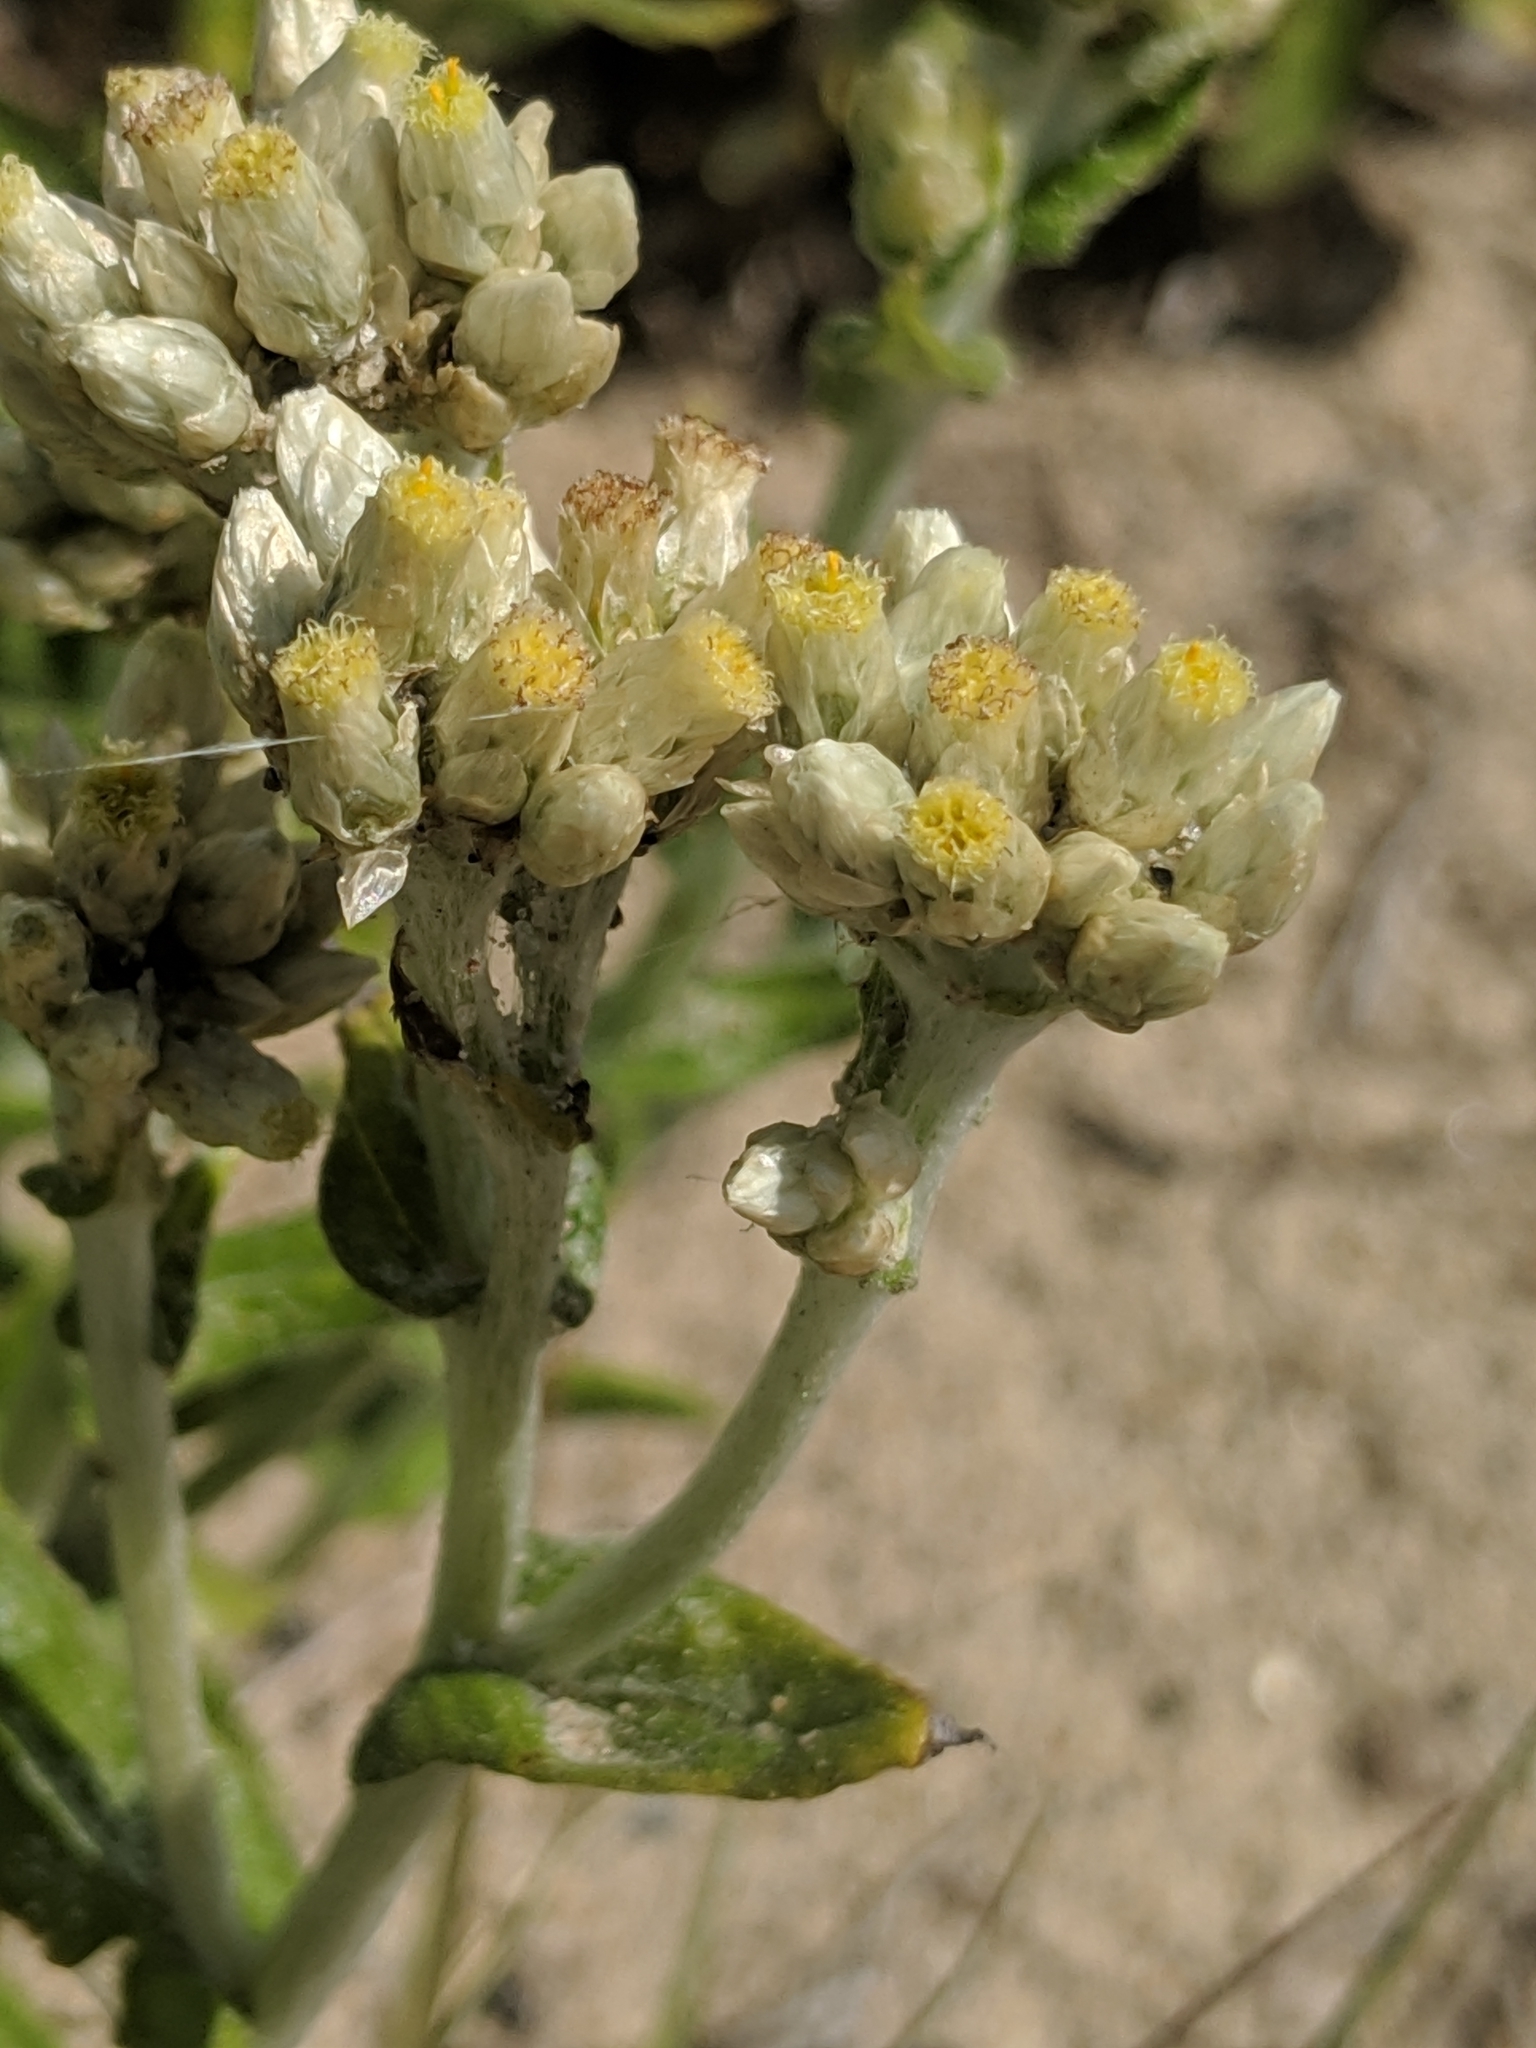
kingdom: Plantae
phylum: Tracheophyta
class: Magnoliopsida
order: Asterales
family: Asteraceae
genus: Pseudognaphalium
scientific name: Pseudognaphalium biolettii
